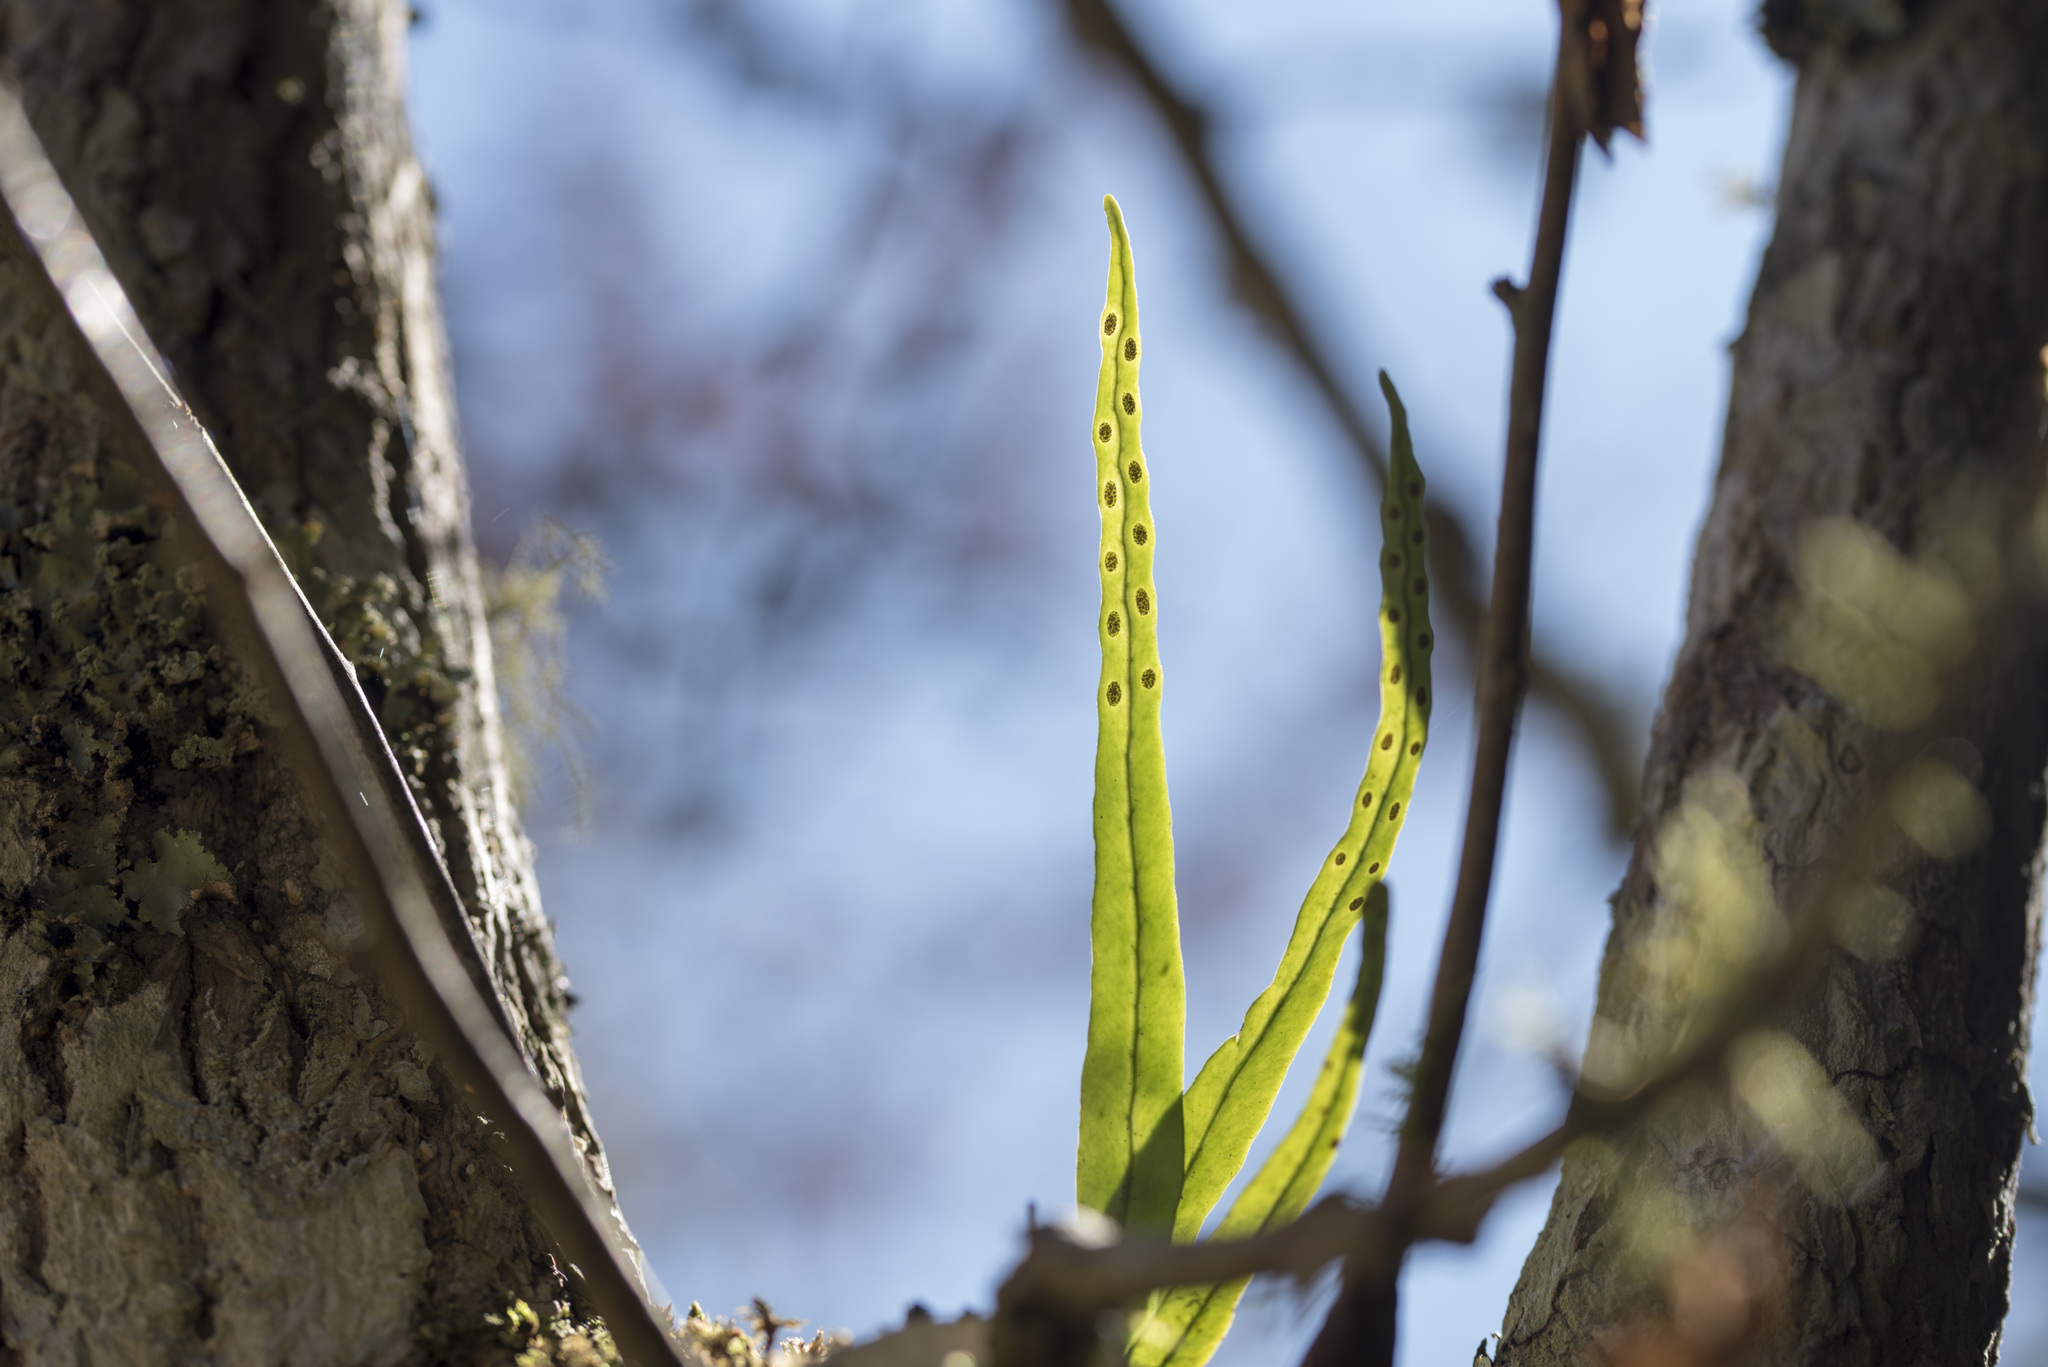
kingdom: Plantae
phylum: Tracheophyta
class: Polypodiopsida
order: Polypodiales
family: Polypodiaceae
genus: Lepisorus
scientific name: Lepisorus monilisorus
